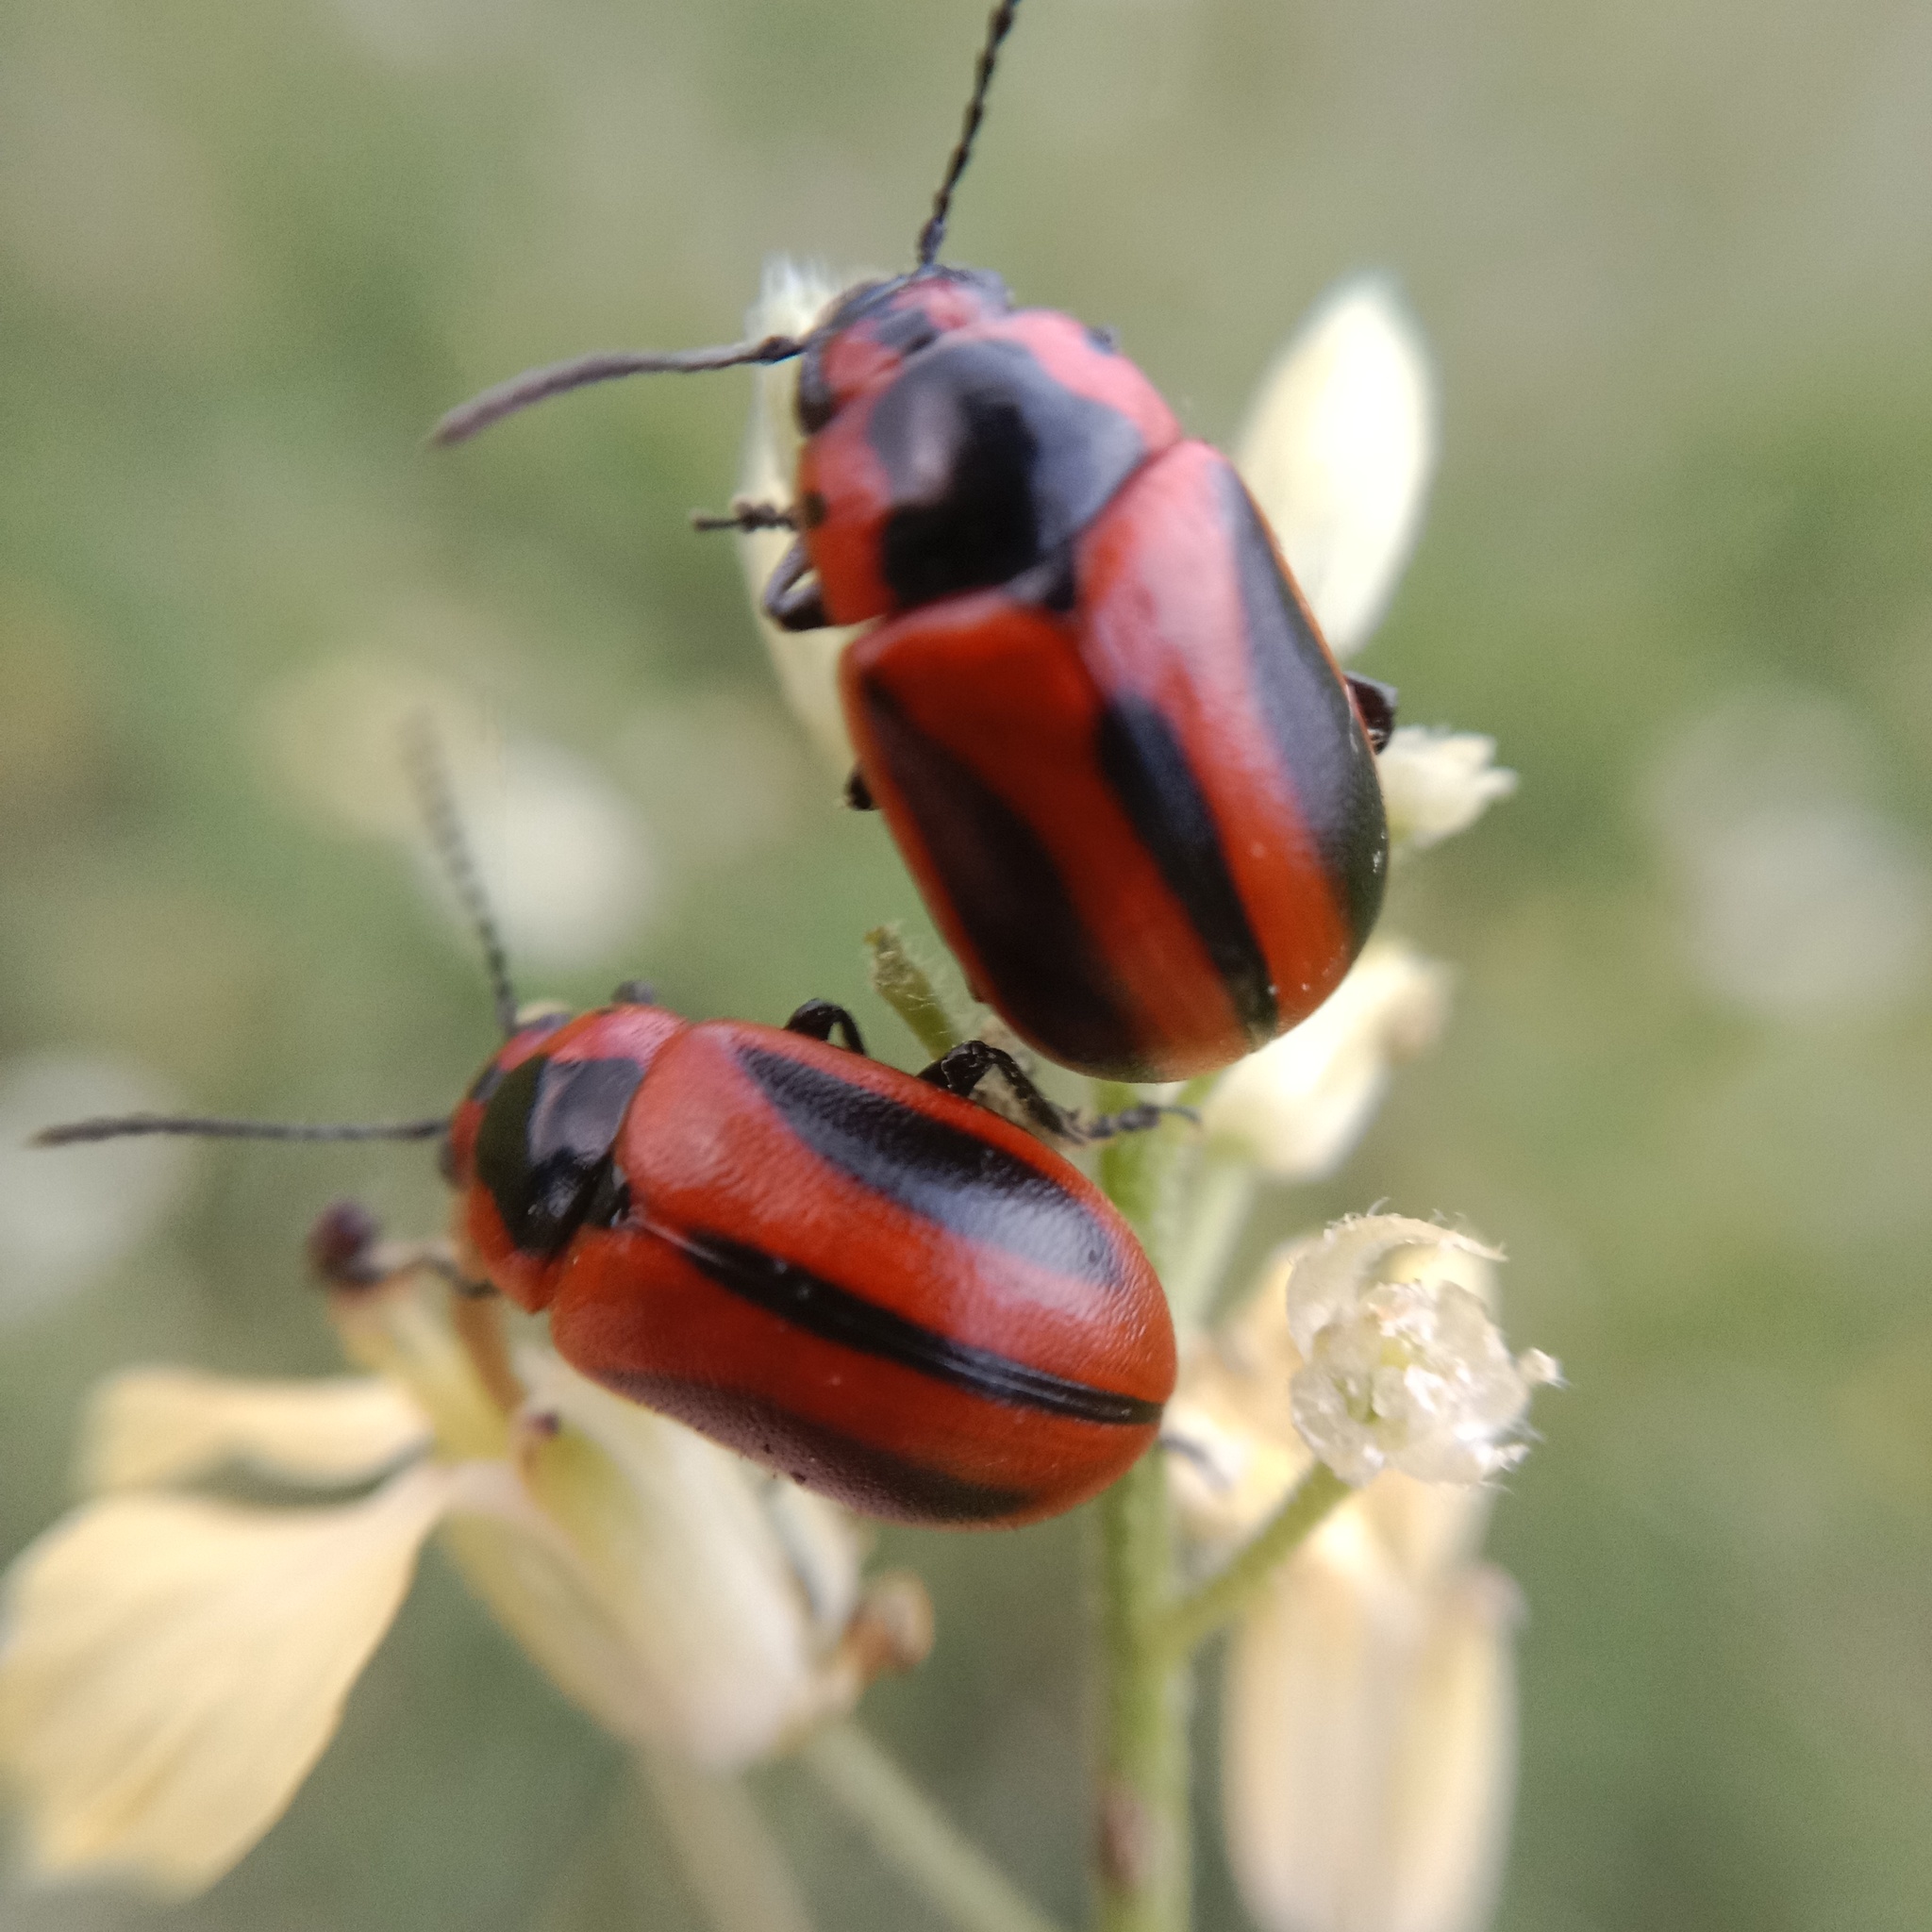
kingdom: Animalia
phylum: Arthropoda
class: Insecta
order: Coleoptera
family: Chrysomelidae
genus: Entomoscelis
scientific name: Entomoscelis adonidis
